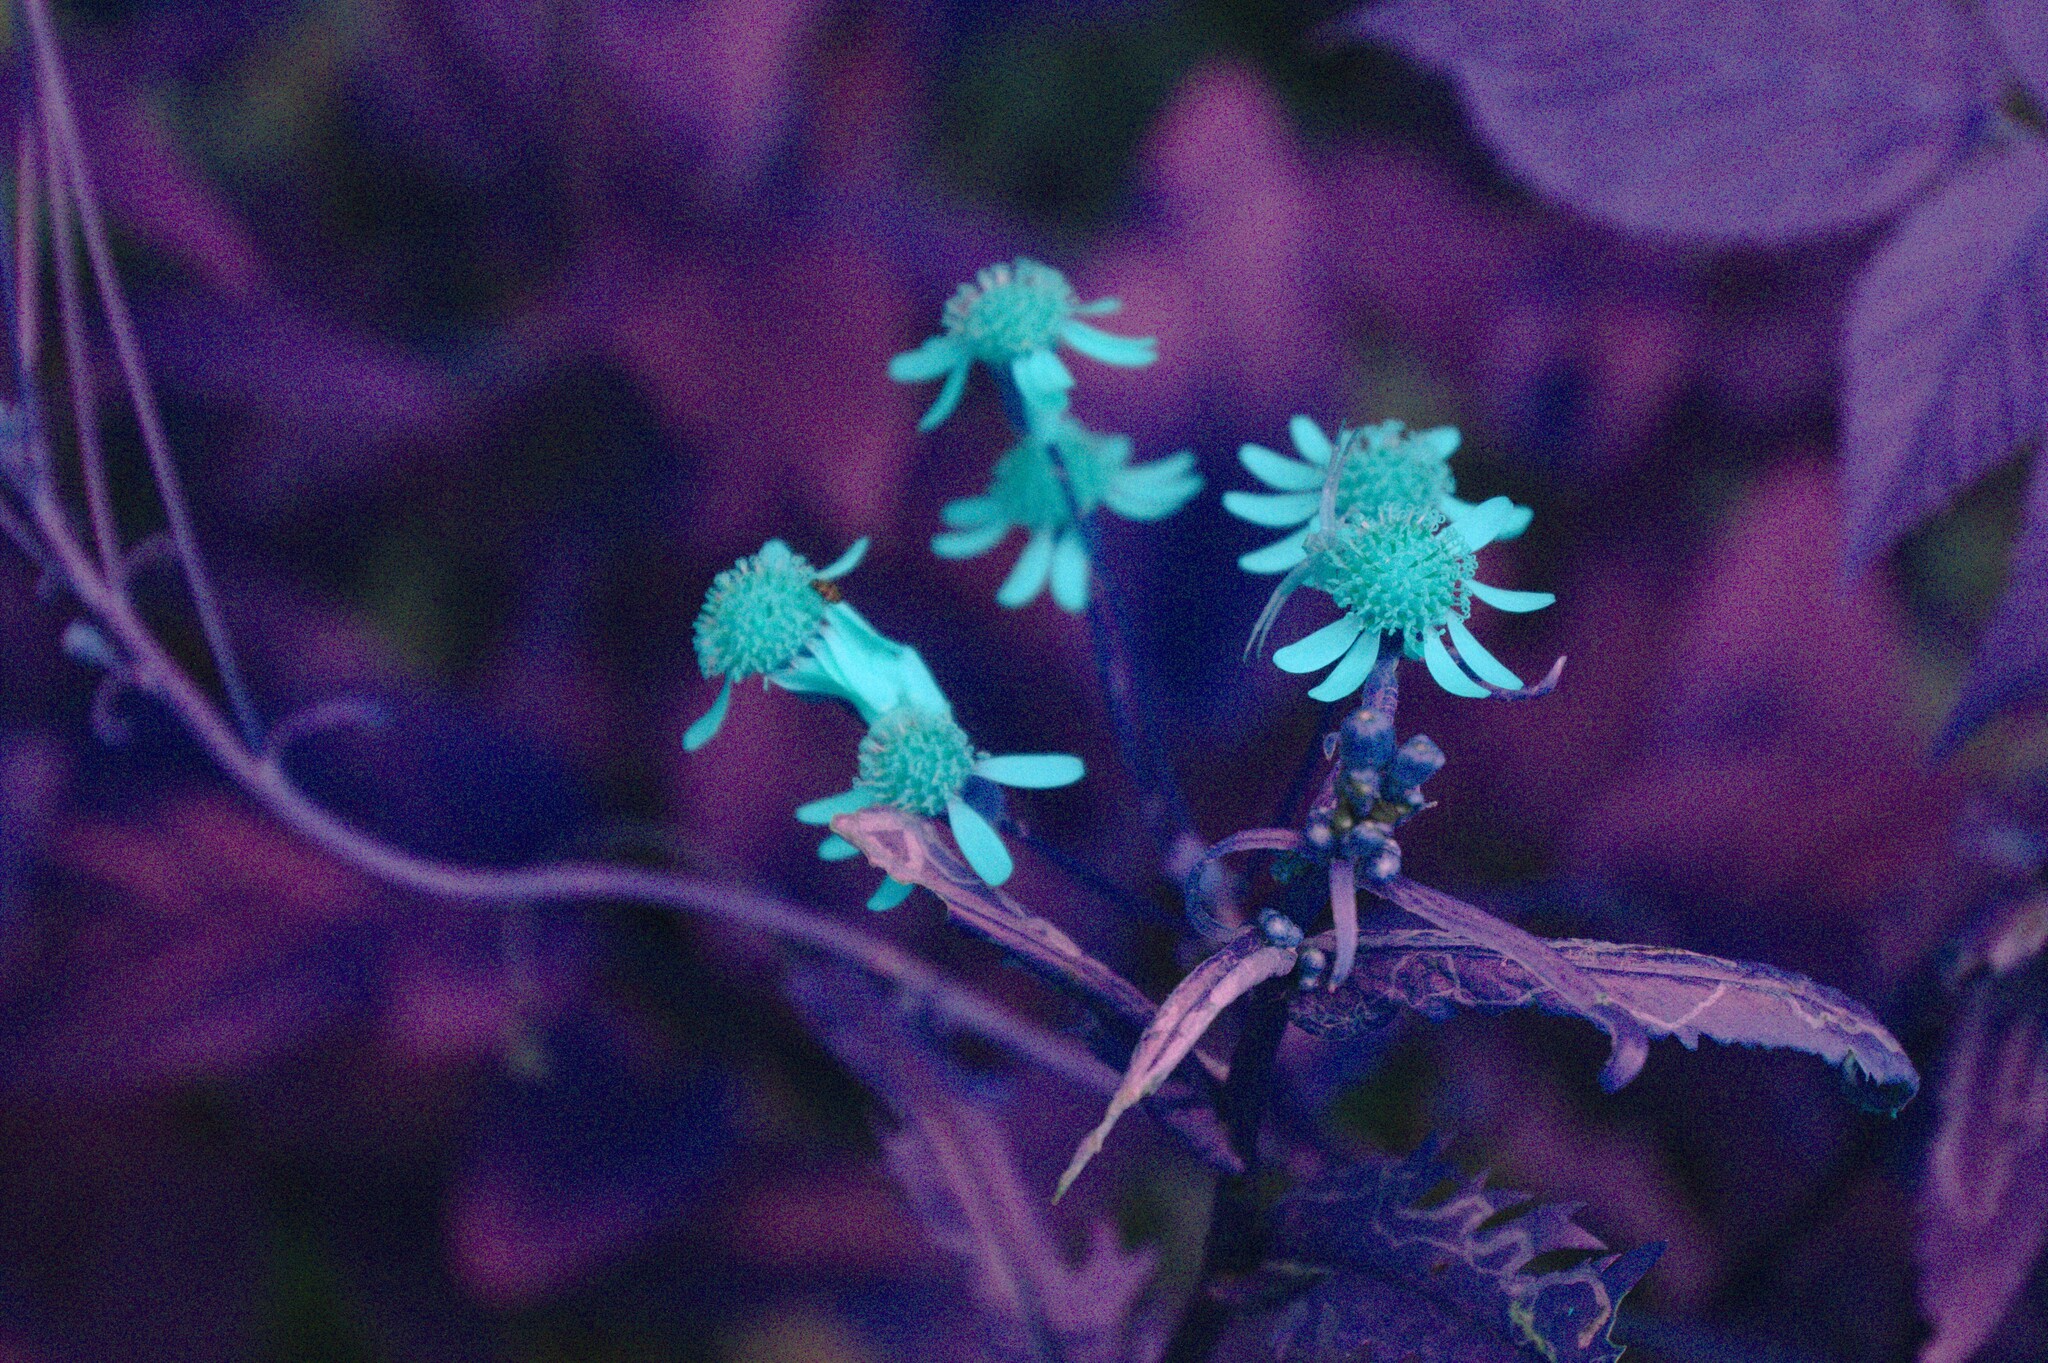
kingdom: Plantae
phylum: Tracheophyta
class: Magnoliopsida
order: Asterales
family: Asteraceae
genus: Packera
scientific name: Packera schweinitziana
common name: Schweinitz's ragwort
